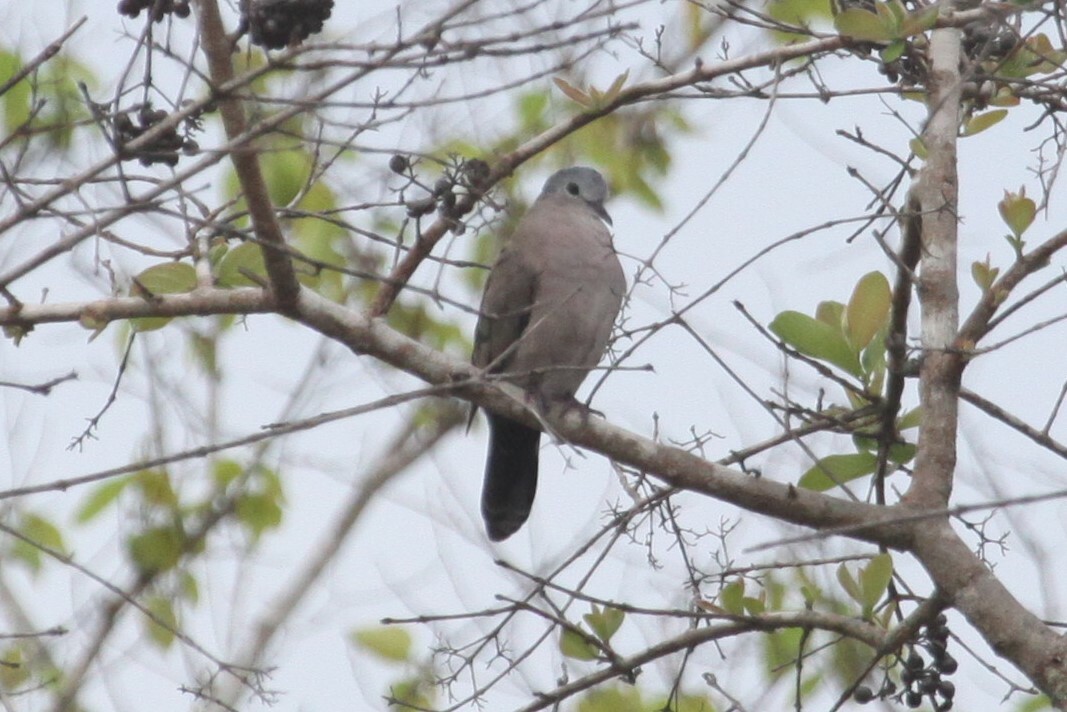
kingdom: Animalia
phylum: Chordata
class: Aves
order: Columbiformes
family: Columbidae
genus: Turtur
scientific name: Turtur chalcospilos
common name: Emerald-spotted wood dove
